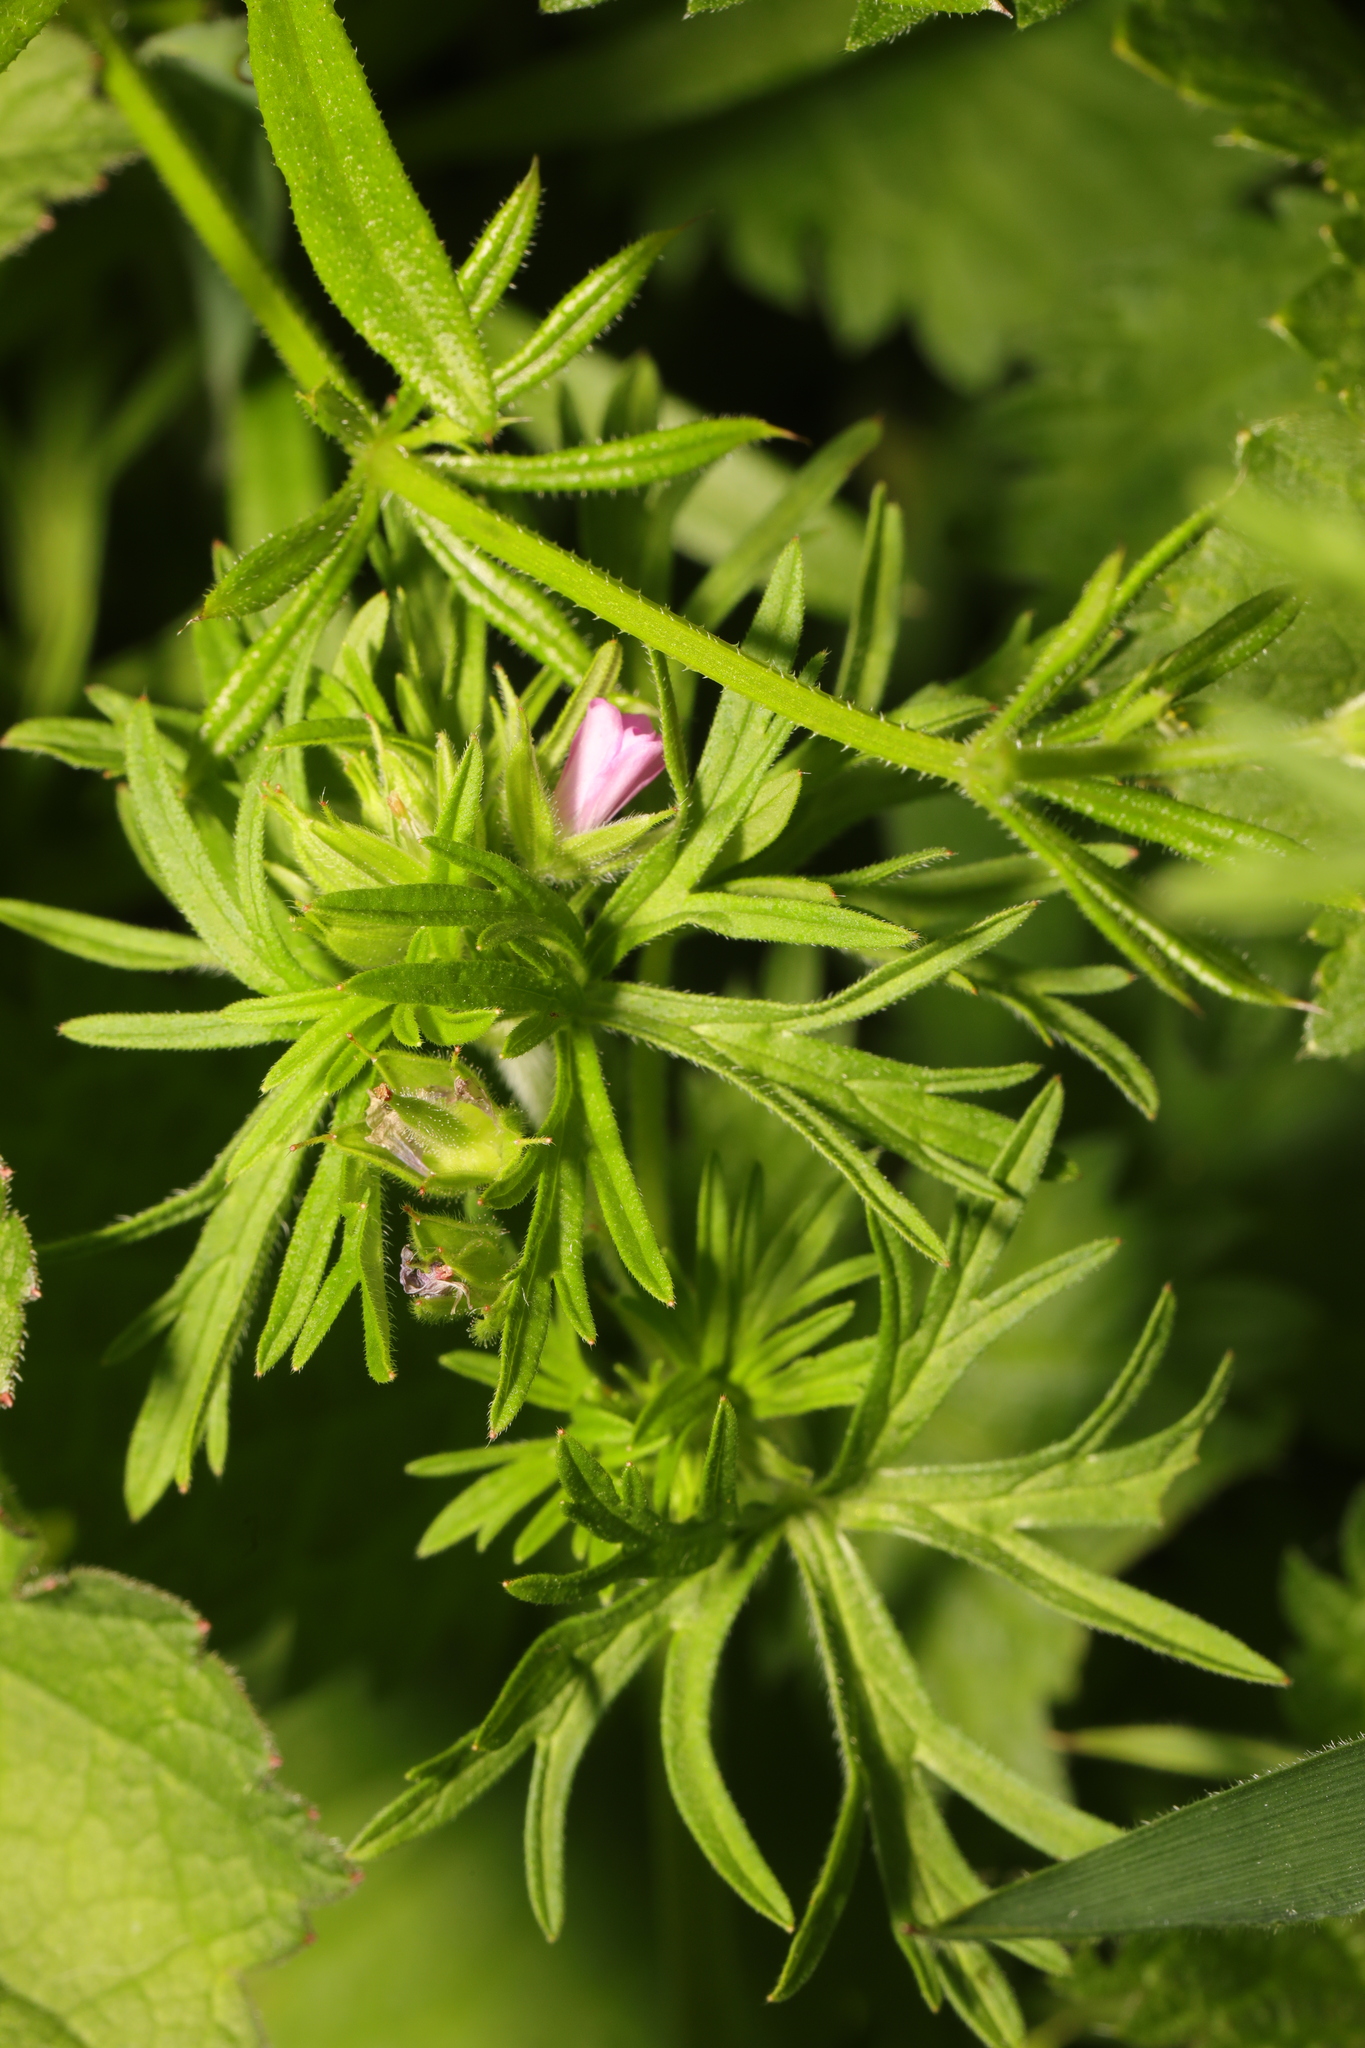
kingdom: Plantae
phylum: Tracheophyta
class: Magnoliopsida
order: Geraniales
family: Geraniaceae
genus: Geranium
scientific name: Geranium dissectum
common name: Cut-leaved crane's-bill
